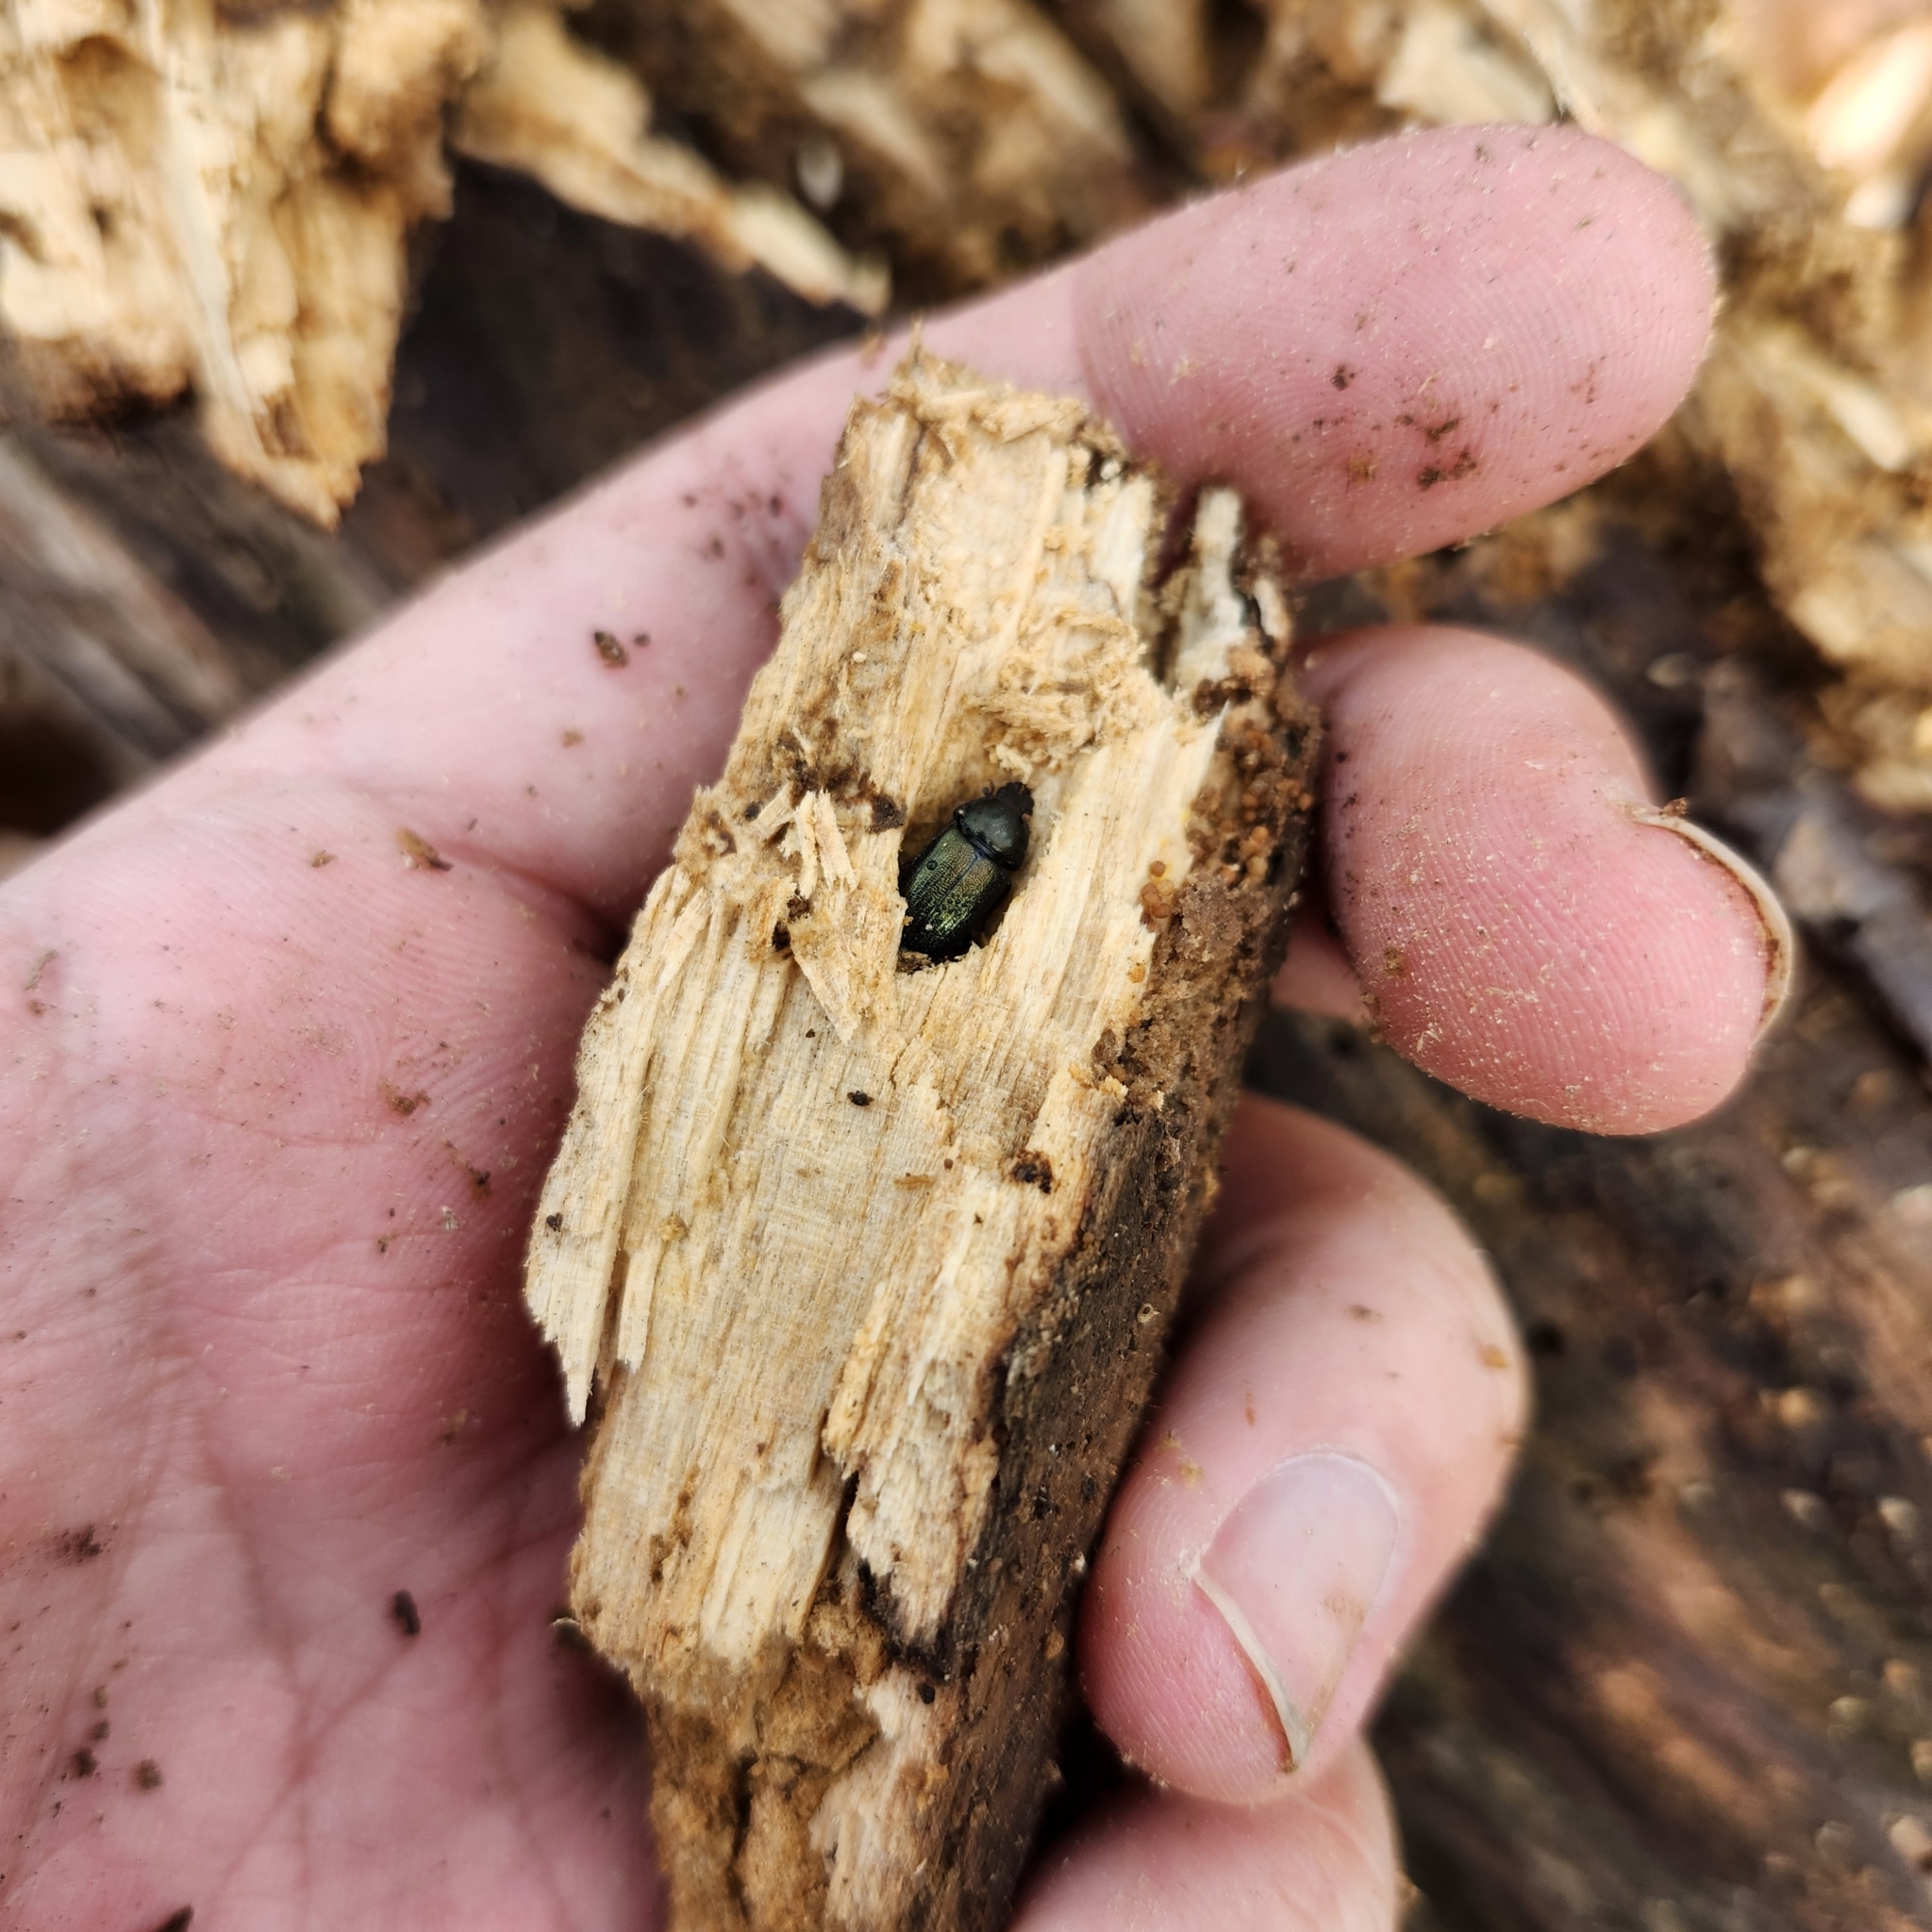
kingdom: Animalia
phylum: Arthropoda
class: Insecta
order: Coleoptera
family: Lucanidae
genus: Platycerus
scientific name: Platycerus quercus
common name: Oak stag beetle
